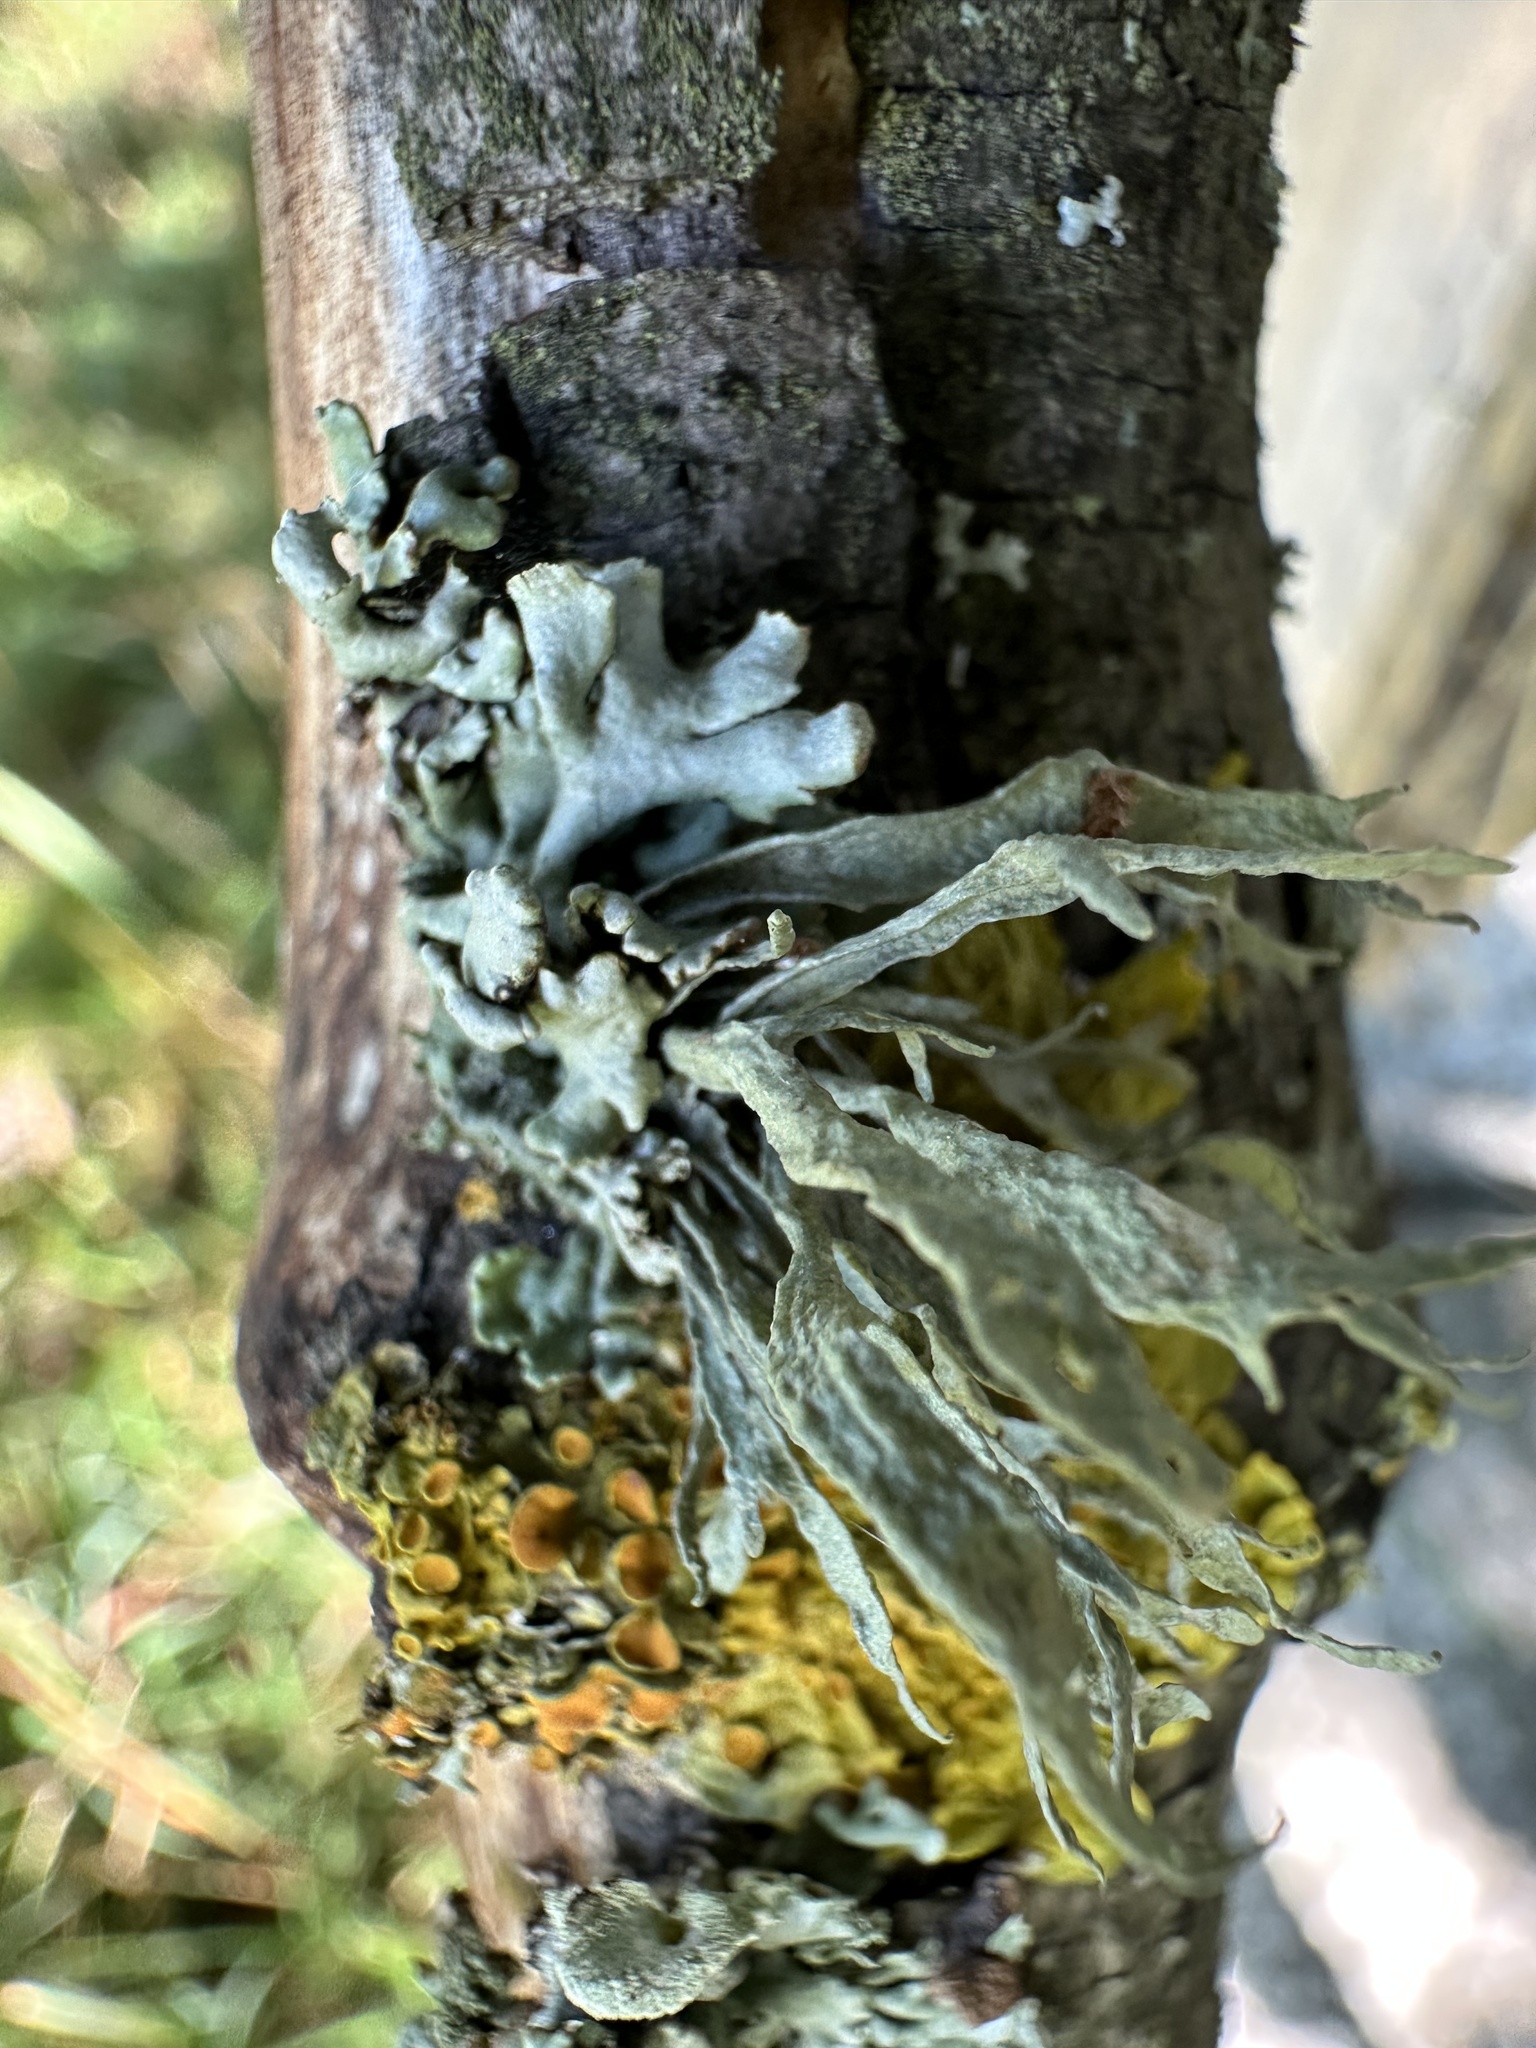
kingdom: Fungi
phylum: Ascomycota
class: Lecanoromycetes
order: Lecanorales
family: Ramalinaceae
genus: Ramalina
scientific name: Ramalina fraxinea
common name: Cartilage lichen
